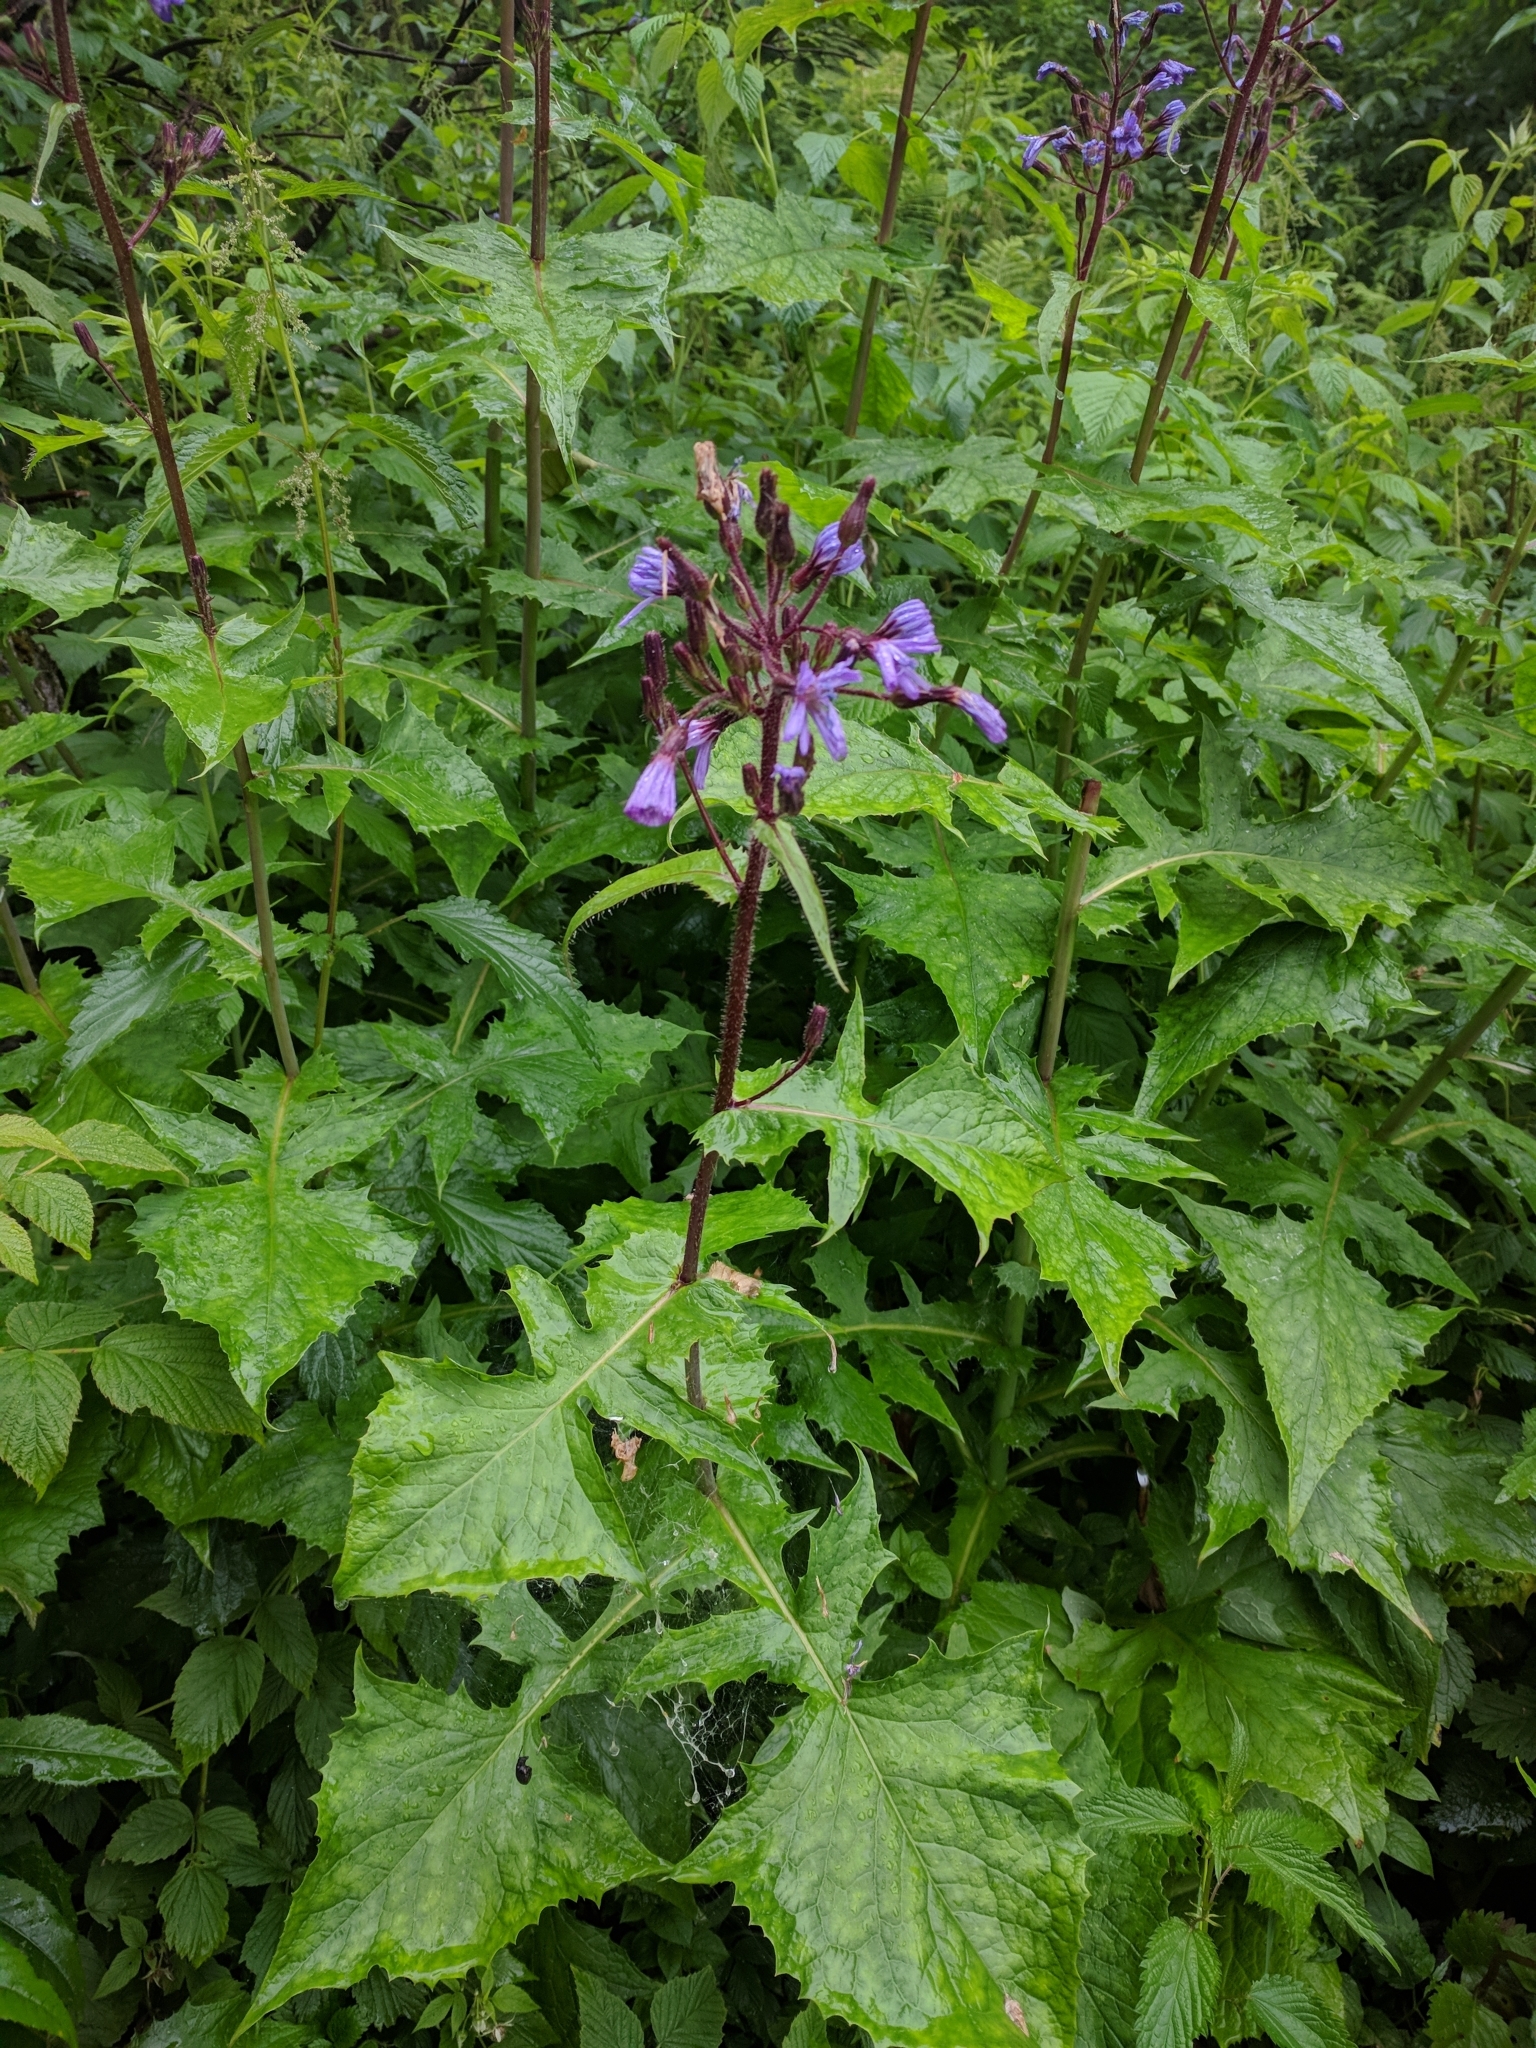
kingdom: Plantae
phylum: Tracheophyta
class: Magnoliopsida
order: Asterales
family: Asteraceae
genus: Cicerbita
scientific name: Cicerbita alpina
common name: Alpine blue-sow-thistle
